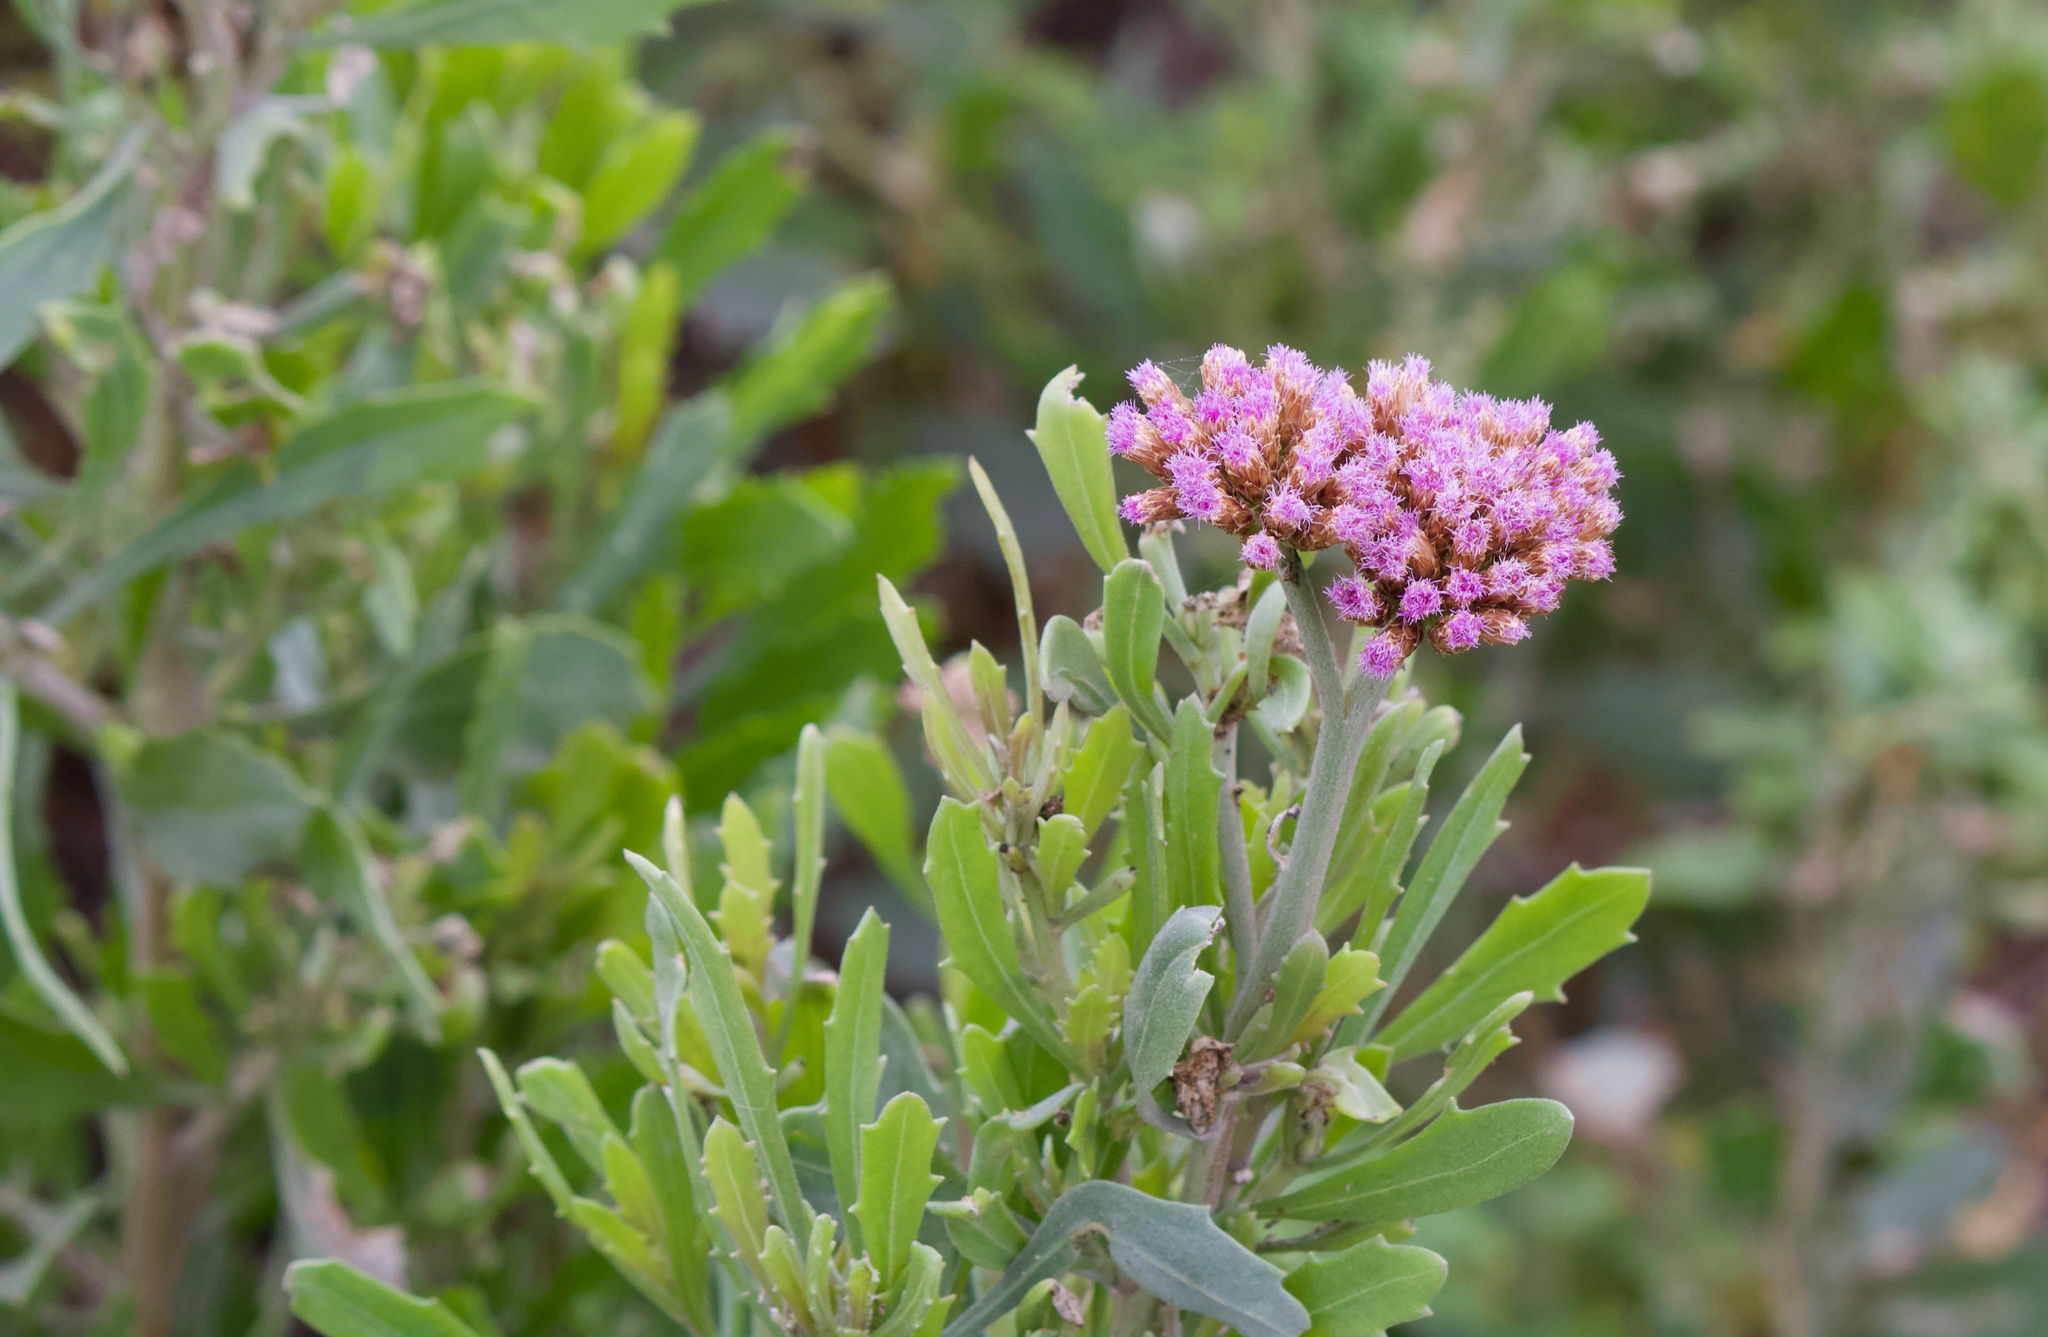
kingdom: Plantae
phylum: Tracheophyta
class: Magnoliopsida
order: Asterales
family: Asteraceae
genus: Tessaria
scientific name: Tessaria absinthioides
